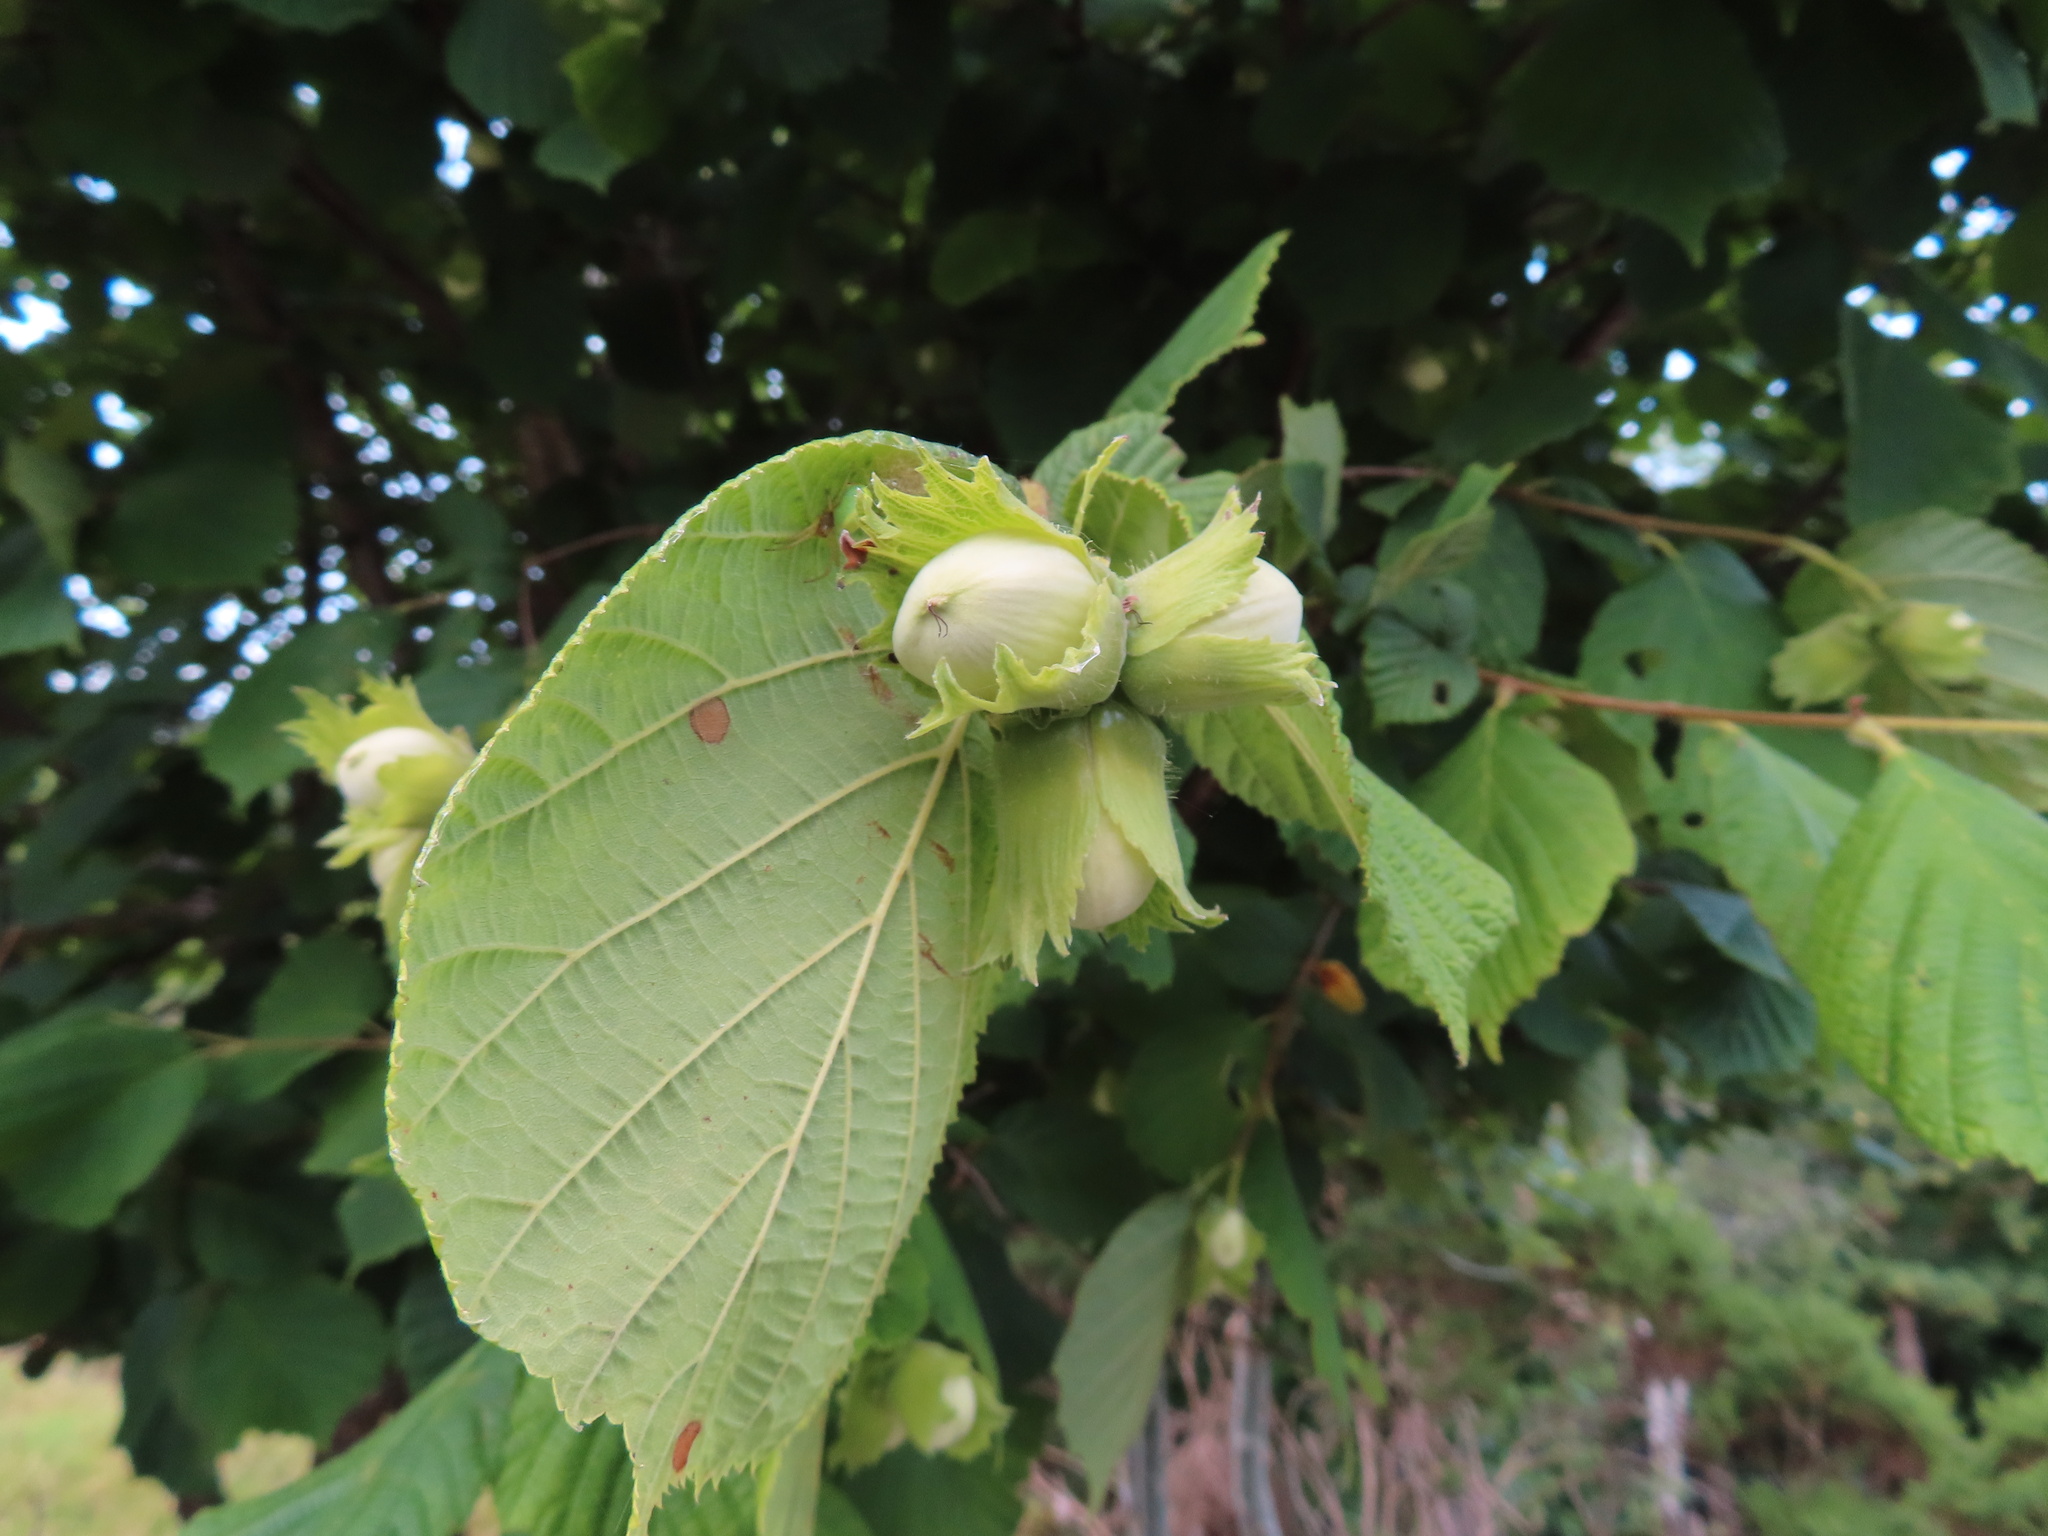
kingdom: Plantae
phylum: Tracheophyta
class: Magnoliopsida
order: Fagales
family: Betulaceae
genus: Corylus
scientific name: Corylus avellana
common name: European hazel
